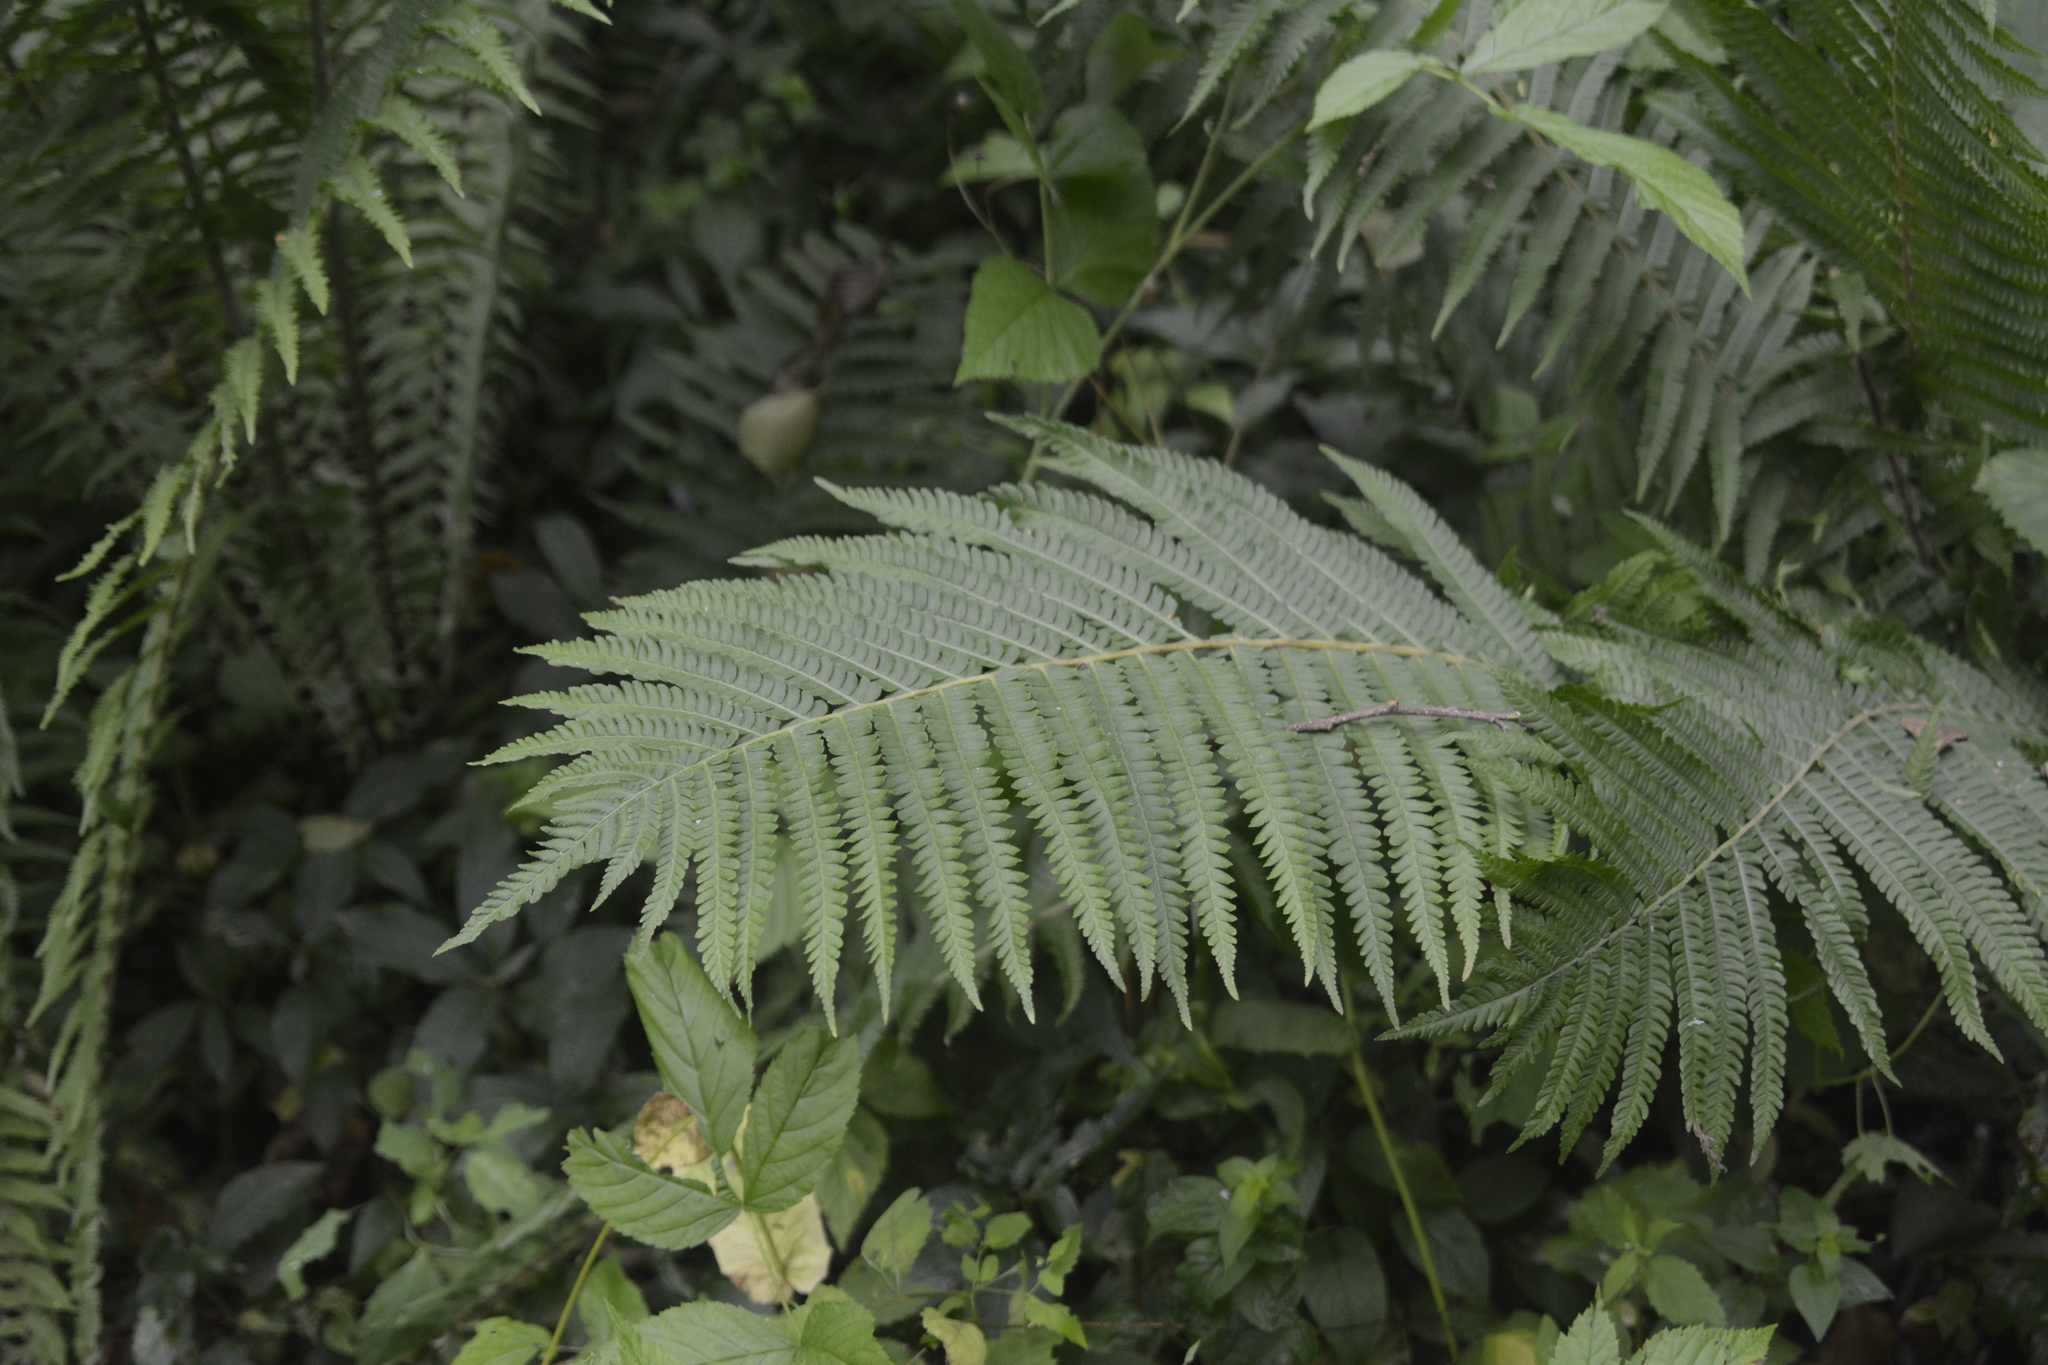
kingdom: Plantae
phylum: Tracheophyta
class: Polypodiopsida
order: Polypodiales
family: Onocleaceae
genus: Matteuccia
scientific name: Matteuccia struthiopteris
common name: Ostrich fern
